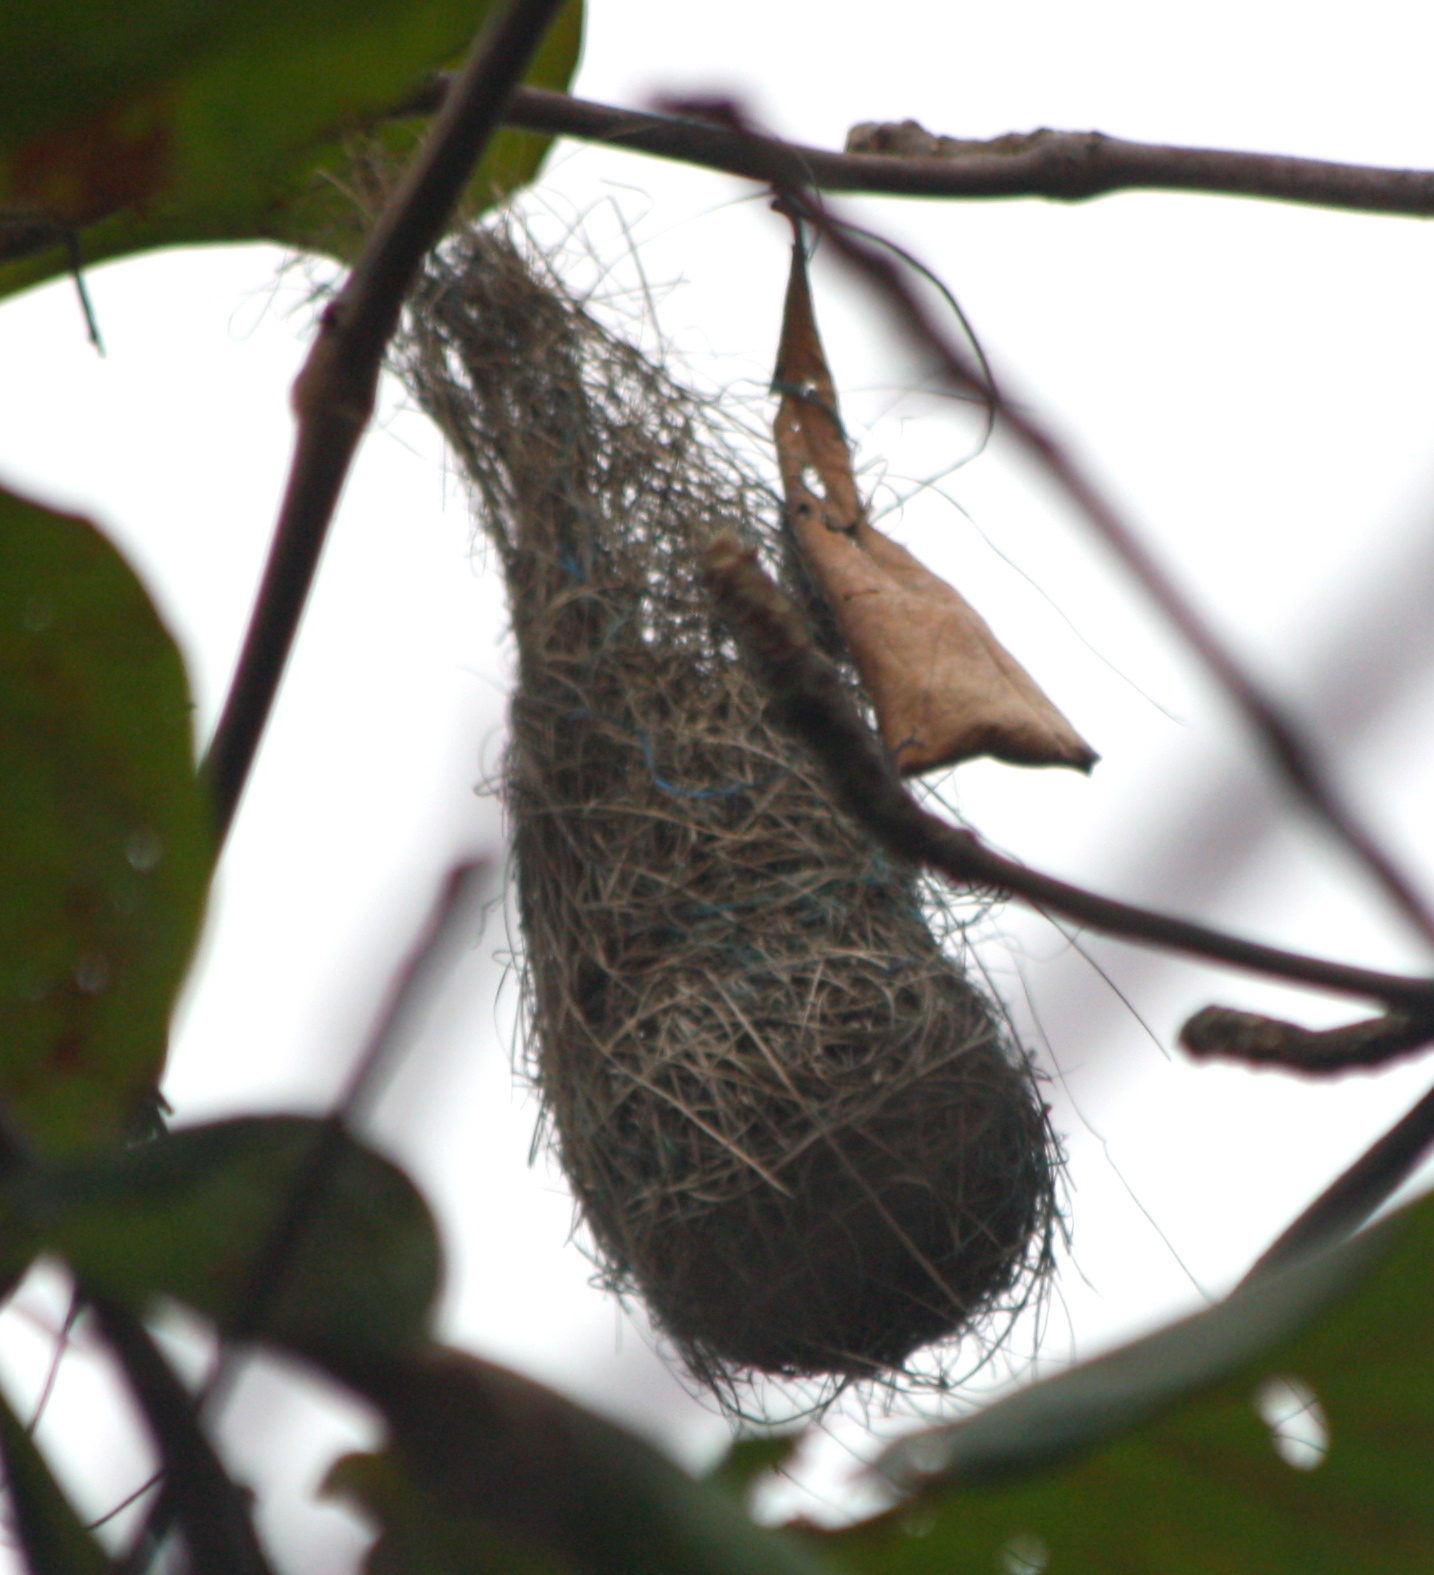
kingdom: Animalia
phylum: Chordata
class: Aves
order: Passeriformes
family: Icteridae
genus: Cacicus
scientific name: Cacicus cela
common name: Yellow-rumped cacique
